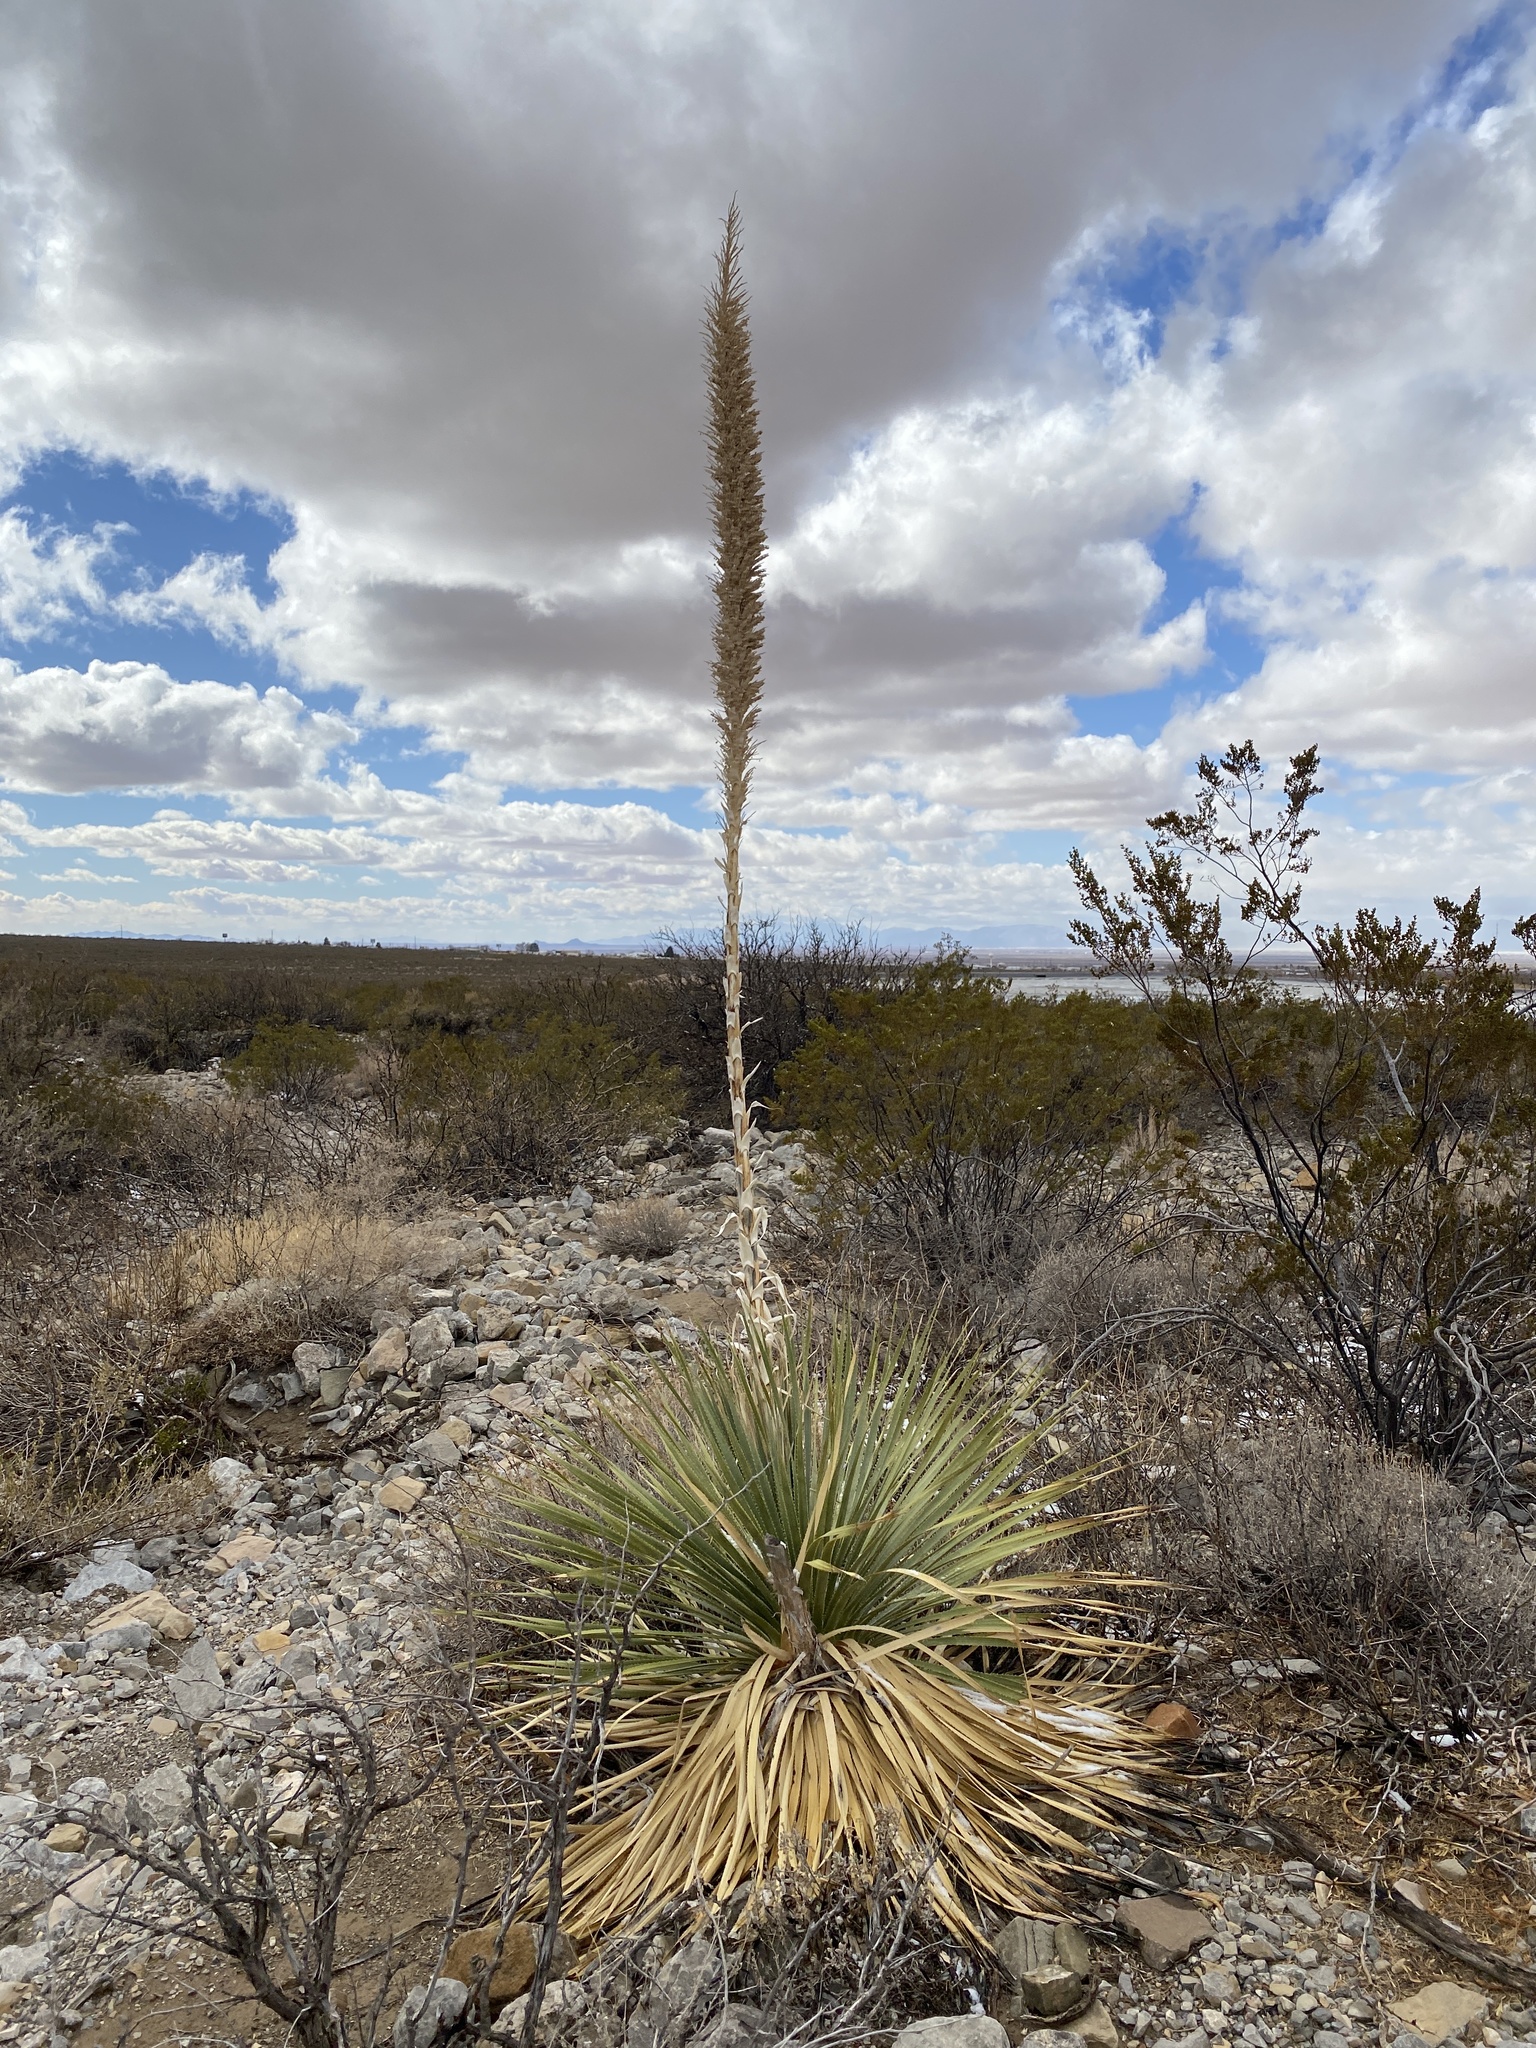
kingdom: Plantae
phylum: Tracheophyta
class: Liliopsida
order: Asparagales
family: Asparagaceae
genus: Dasylirion
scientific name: Dasylirion wheeleri
